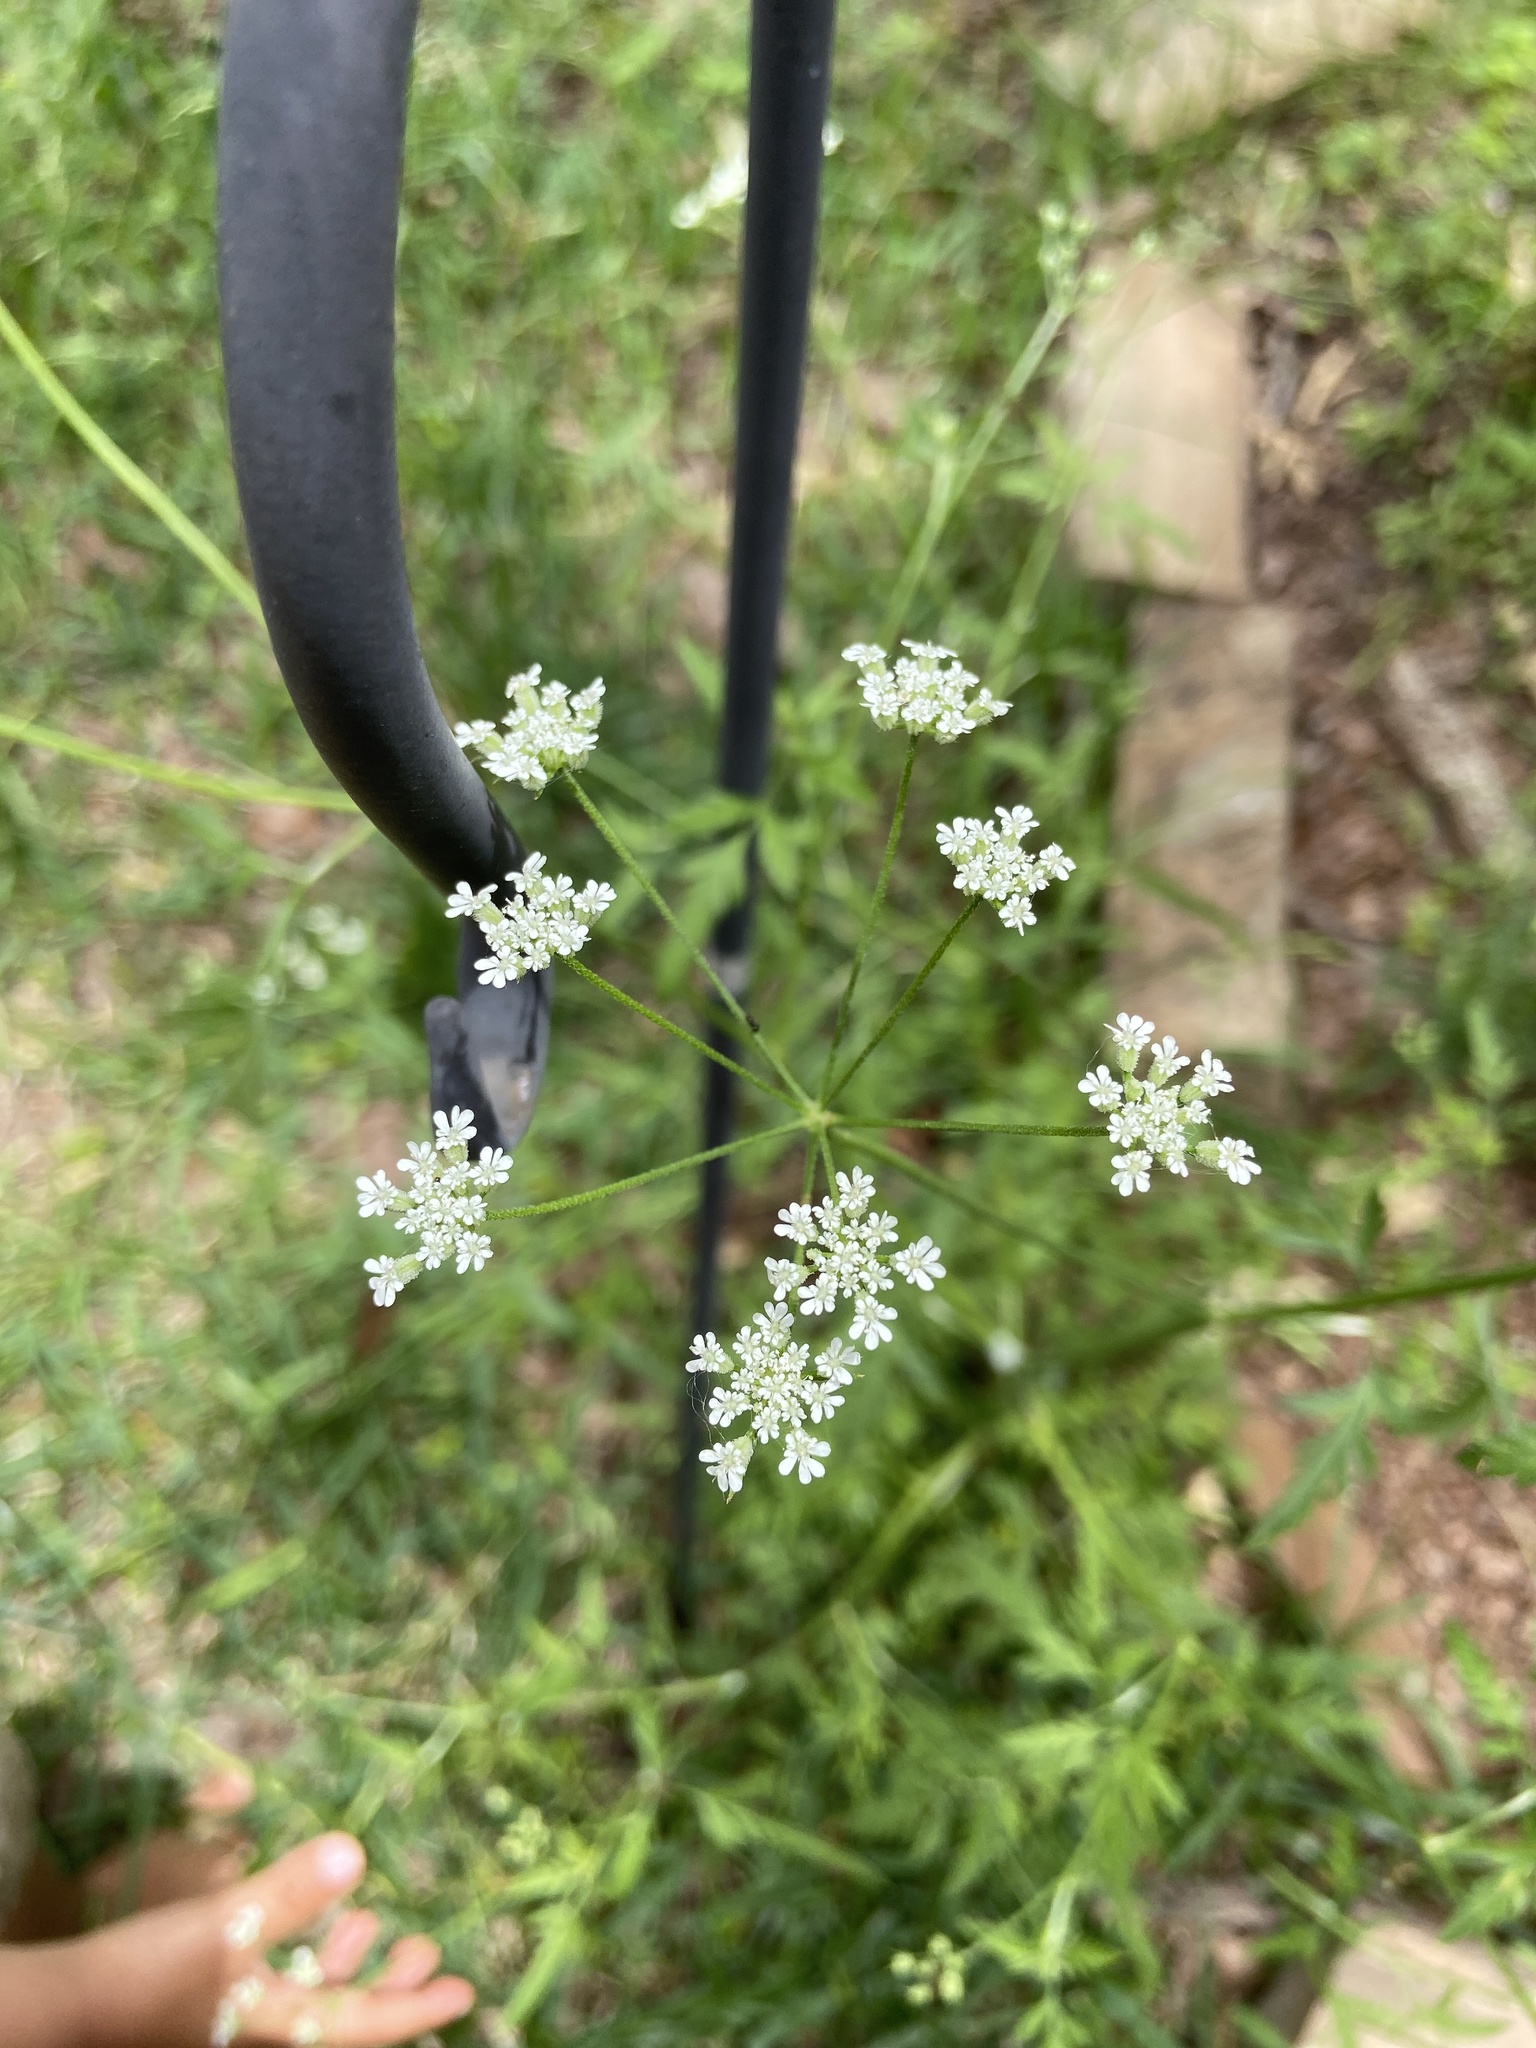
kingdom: Plantae
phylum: Tracheophyta
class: Magnoliopsida
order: Apiales
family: Apiaceae
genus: Torilis
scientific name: Torilis arvensis
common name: Spreading hedge-parsley
